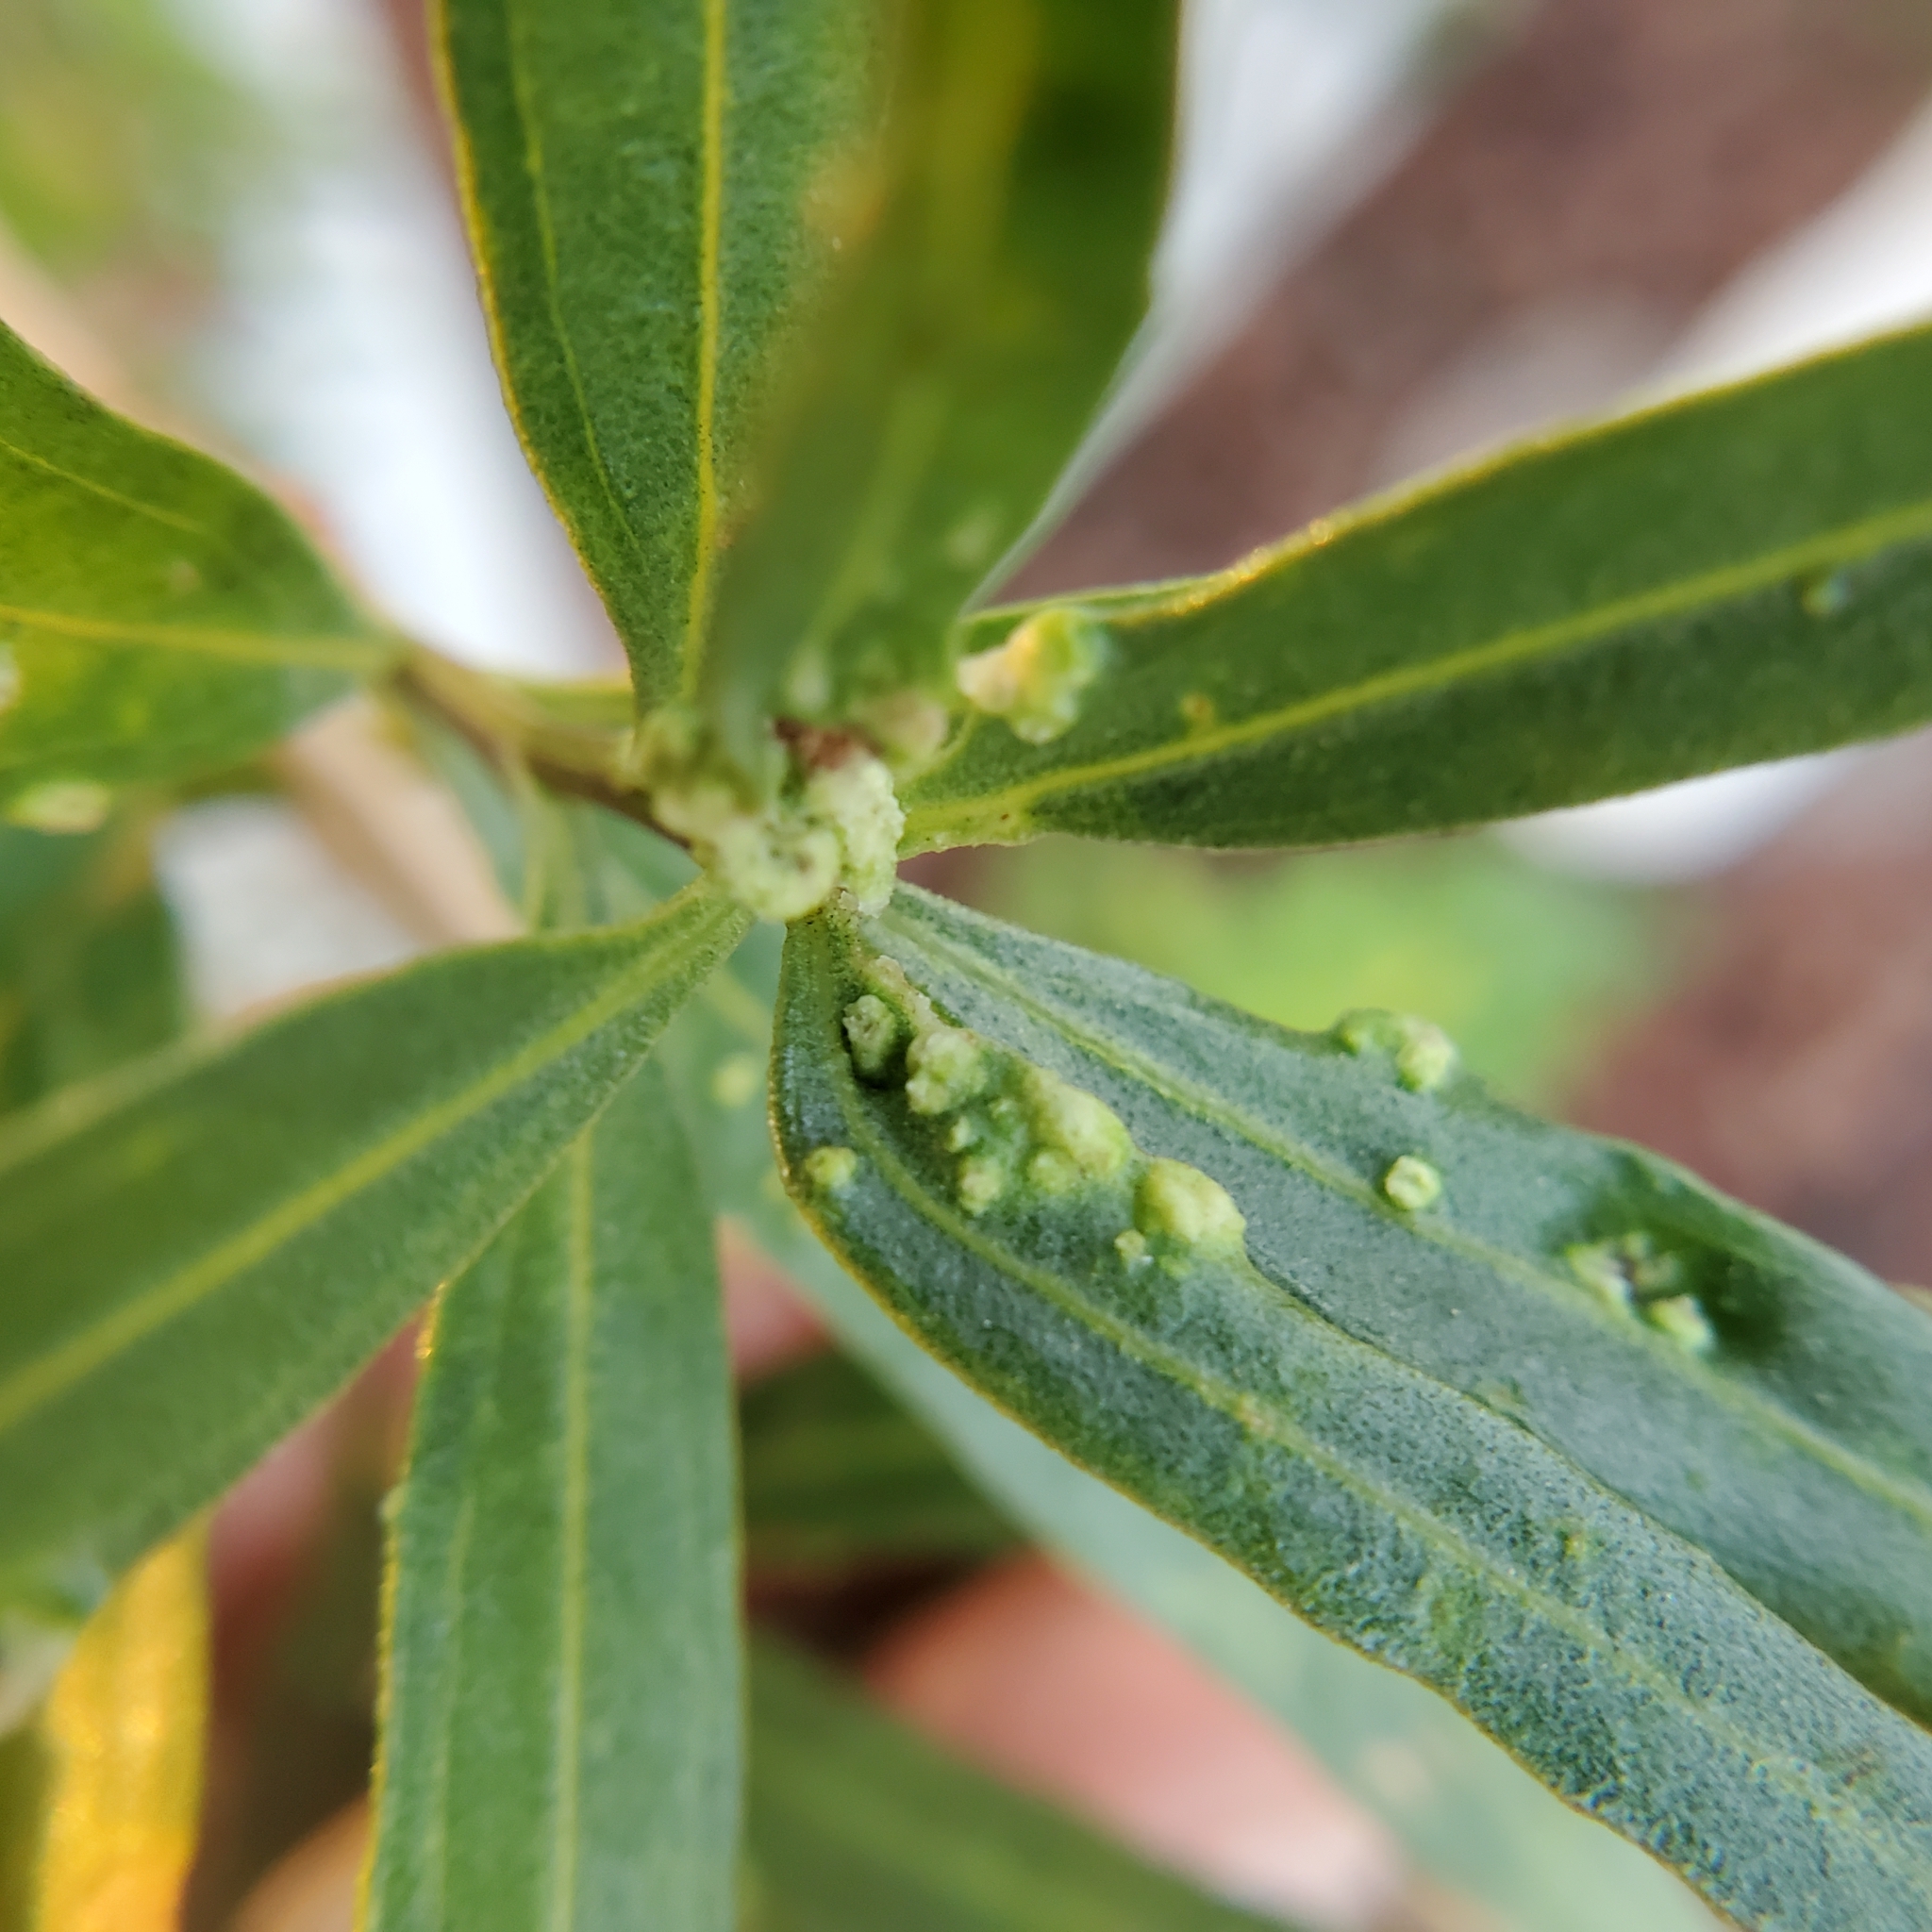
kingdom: Animalia
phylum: Arthropoda
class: Arachnida
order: Trombidiformes
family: Eriophyidae
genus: Aceria
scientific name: Aceria
